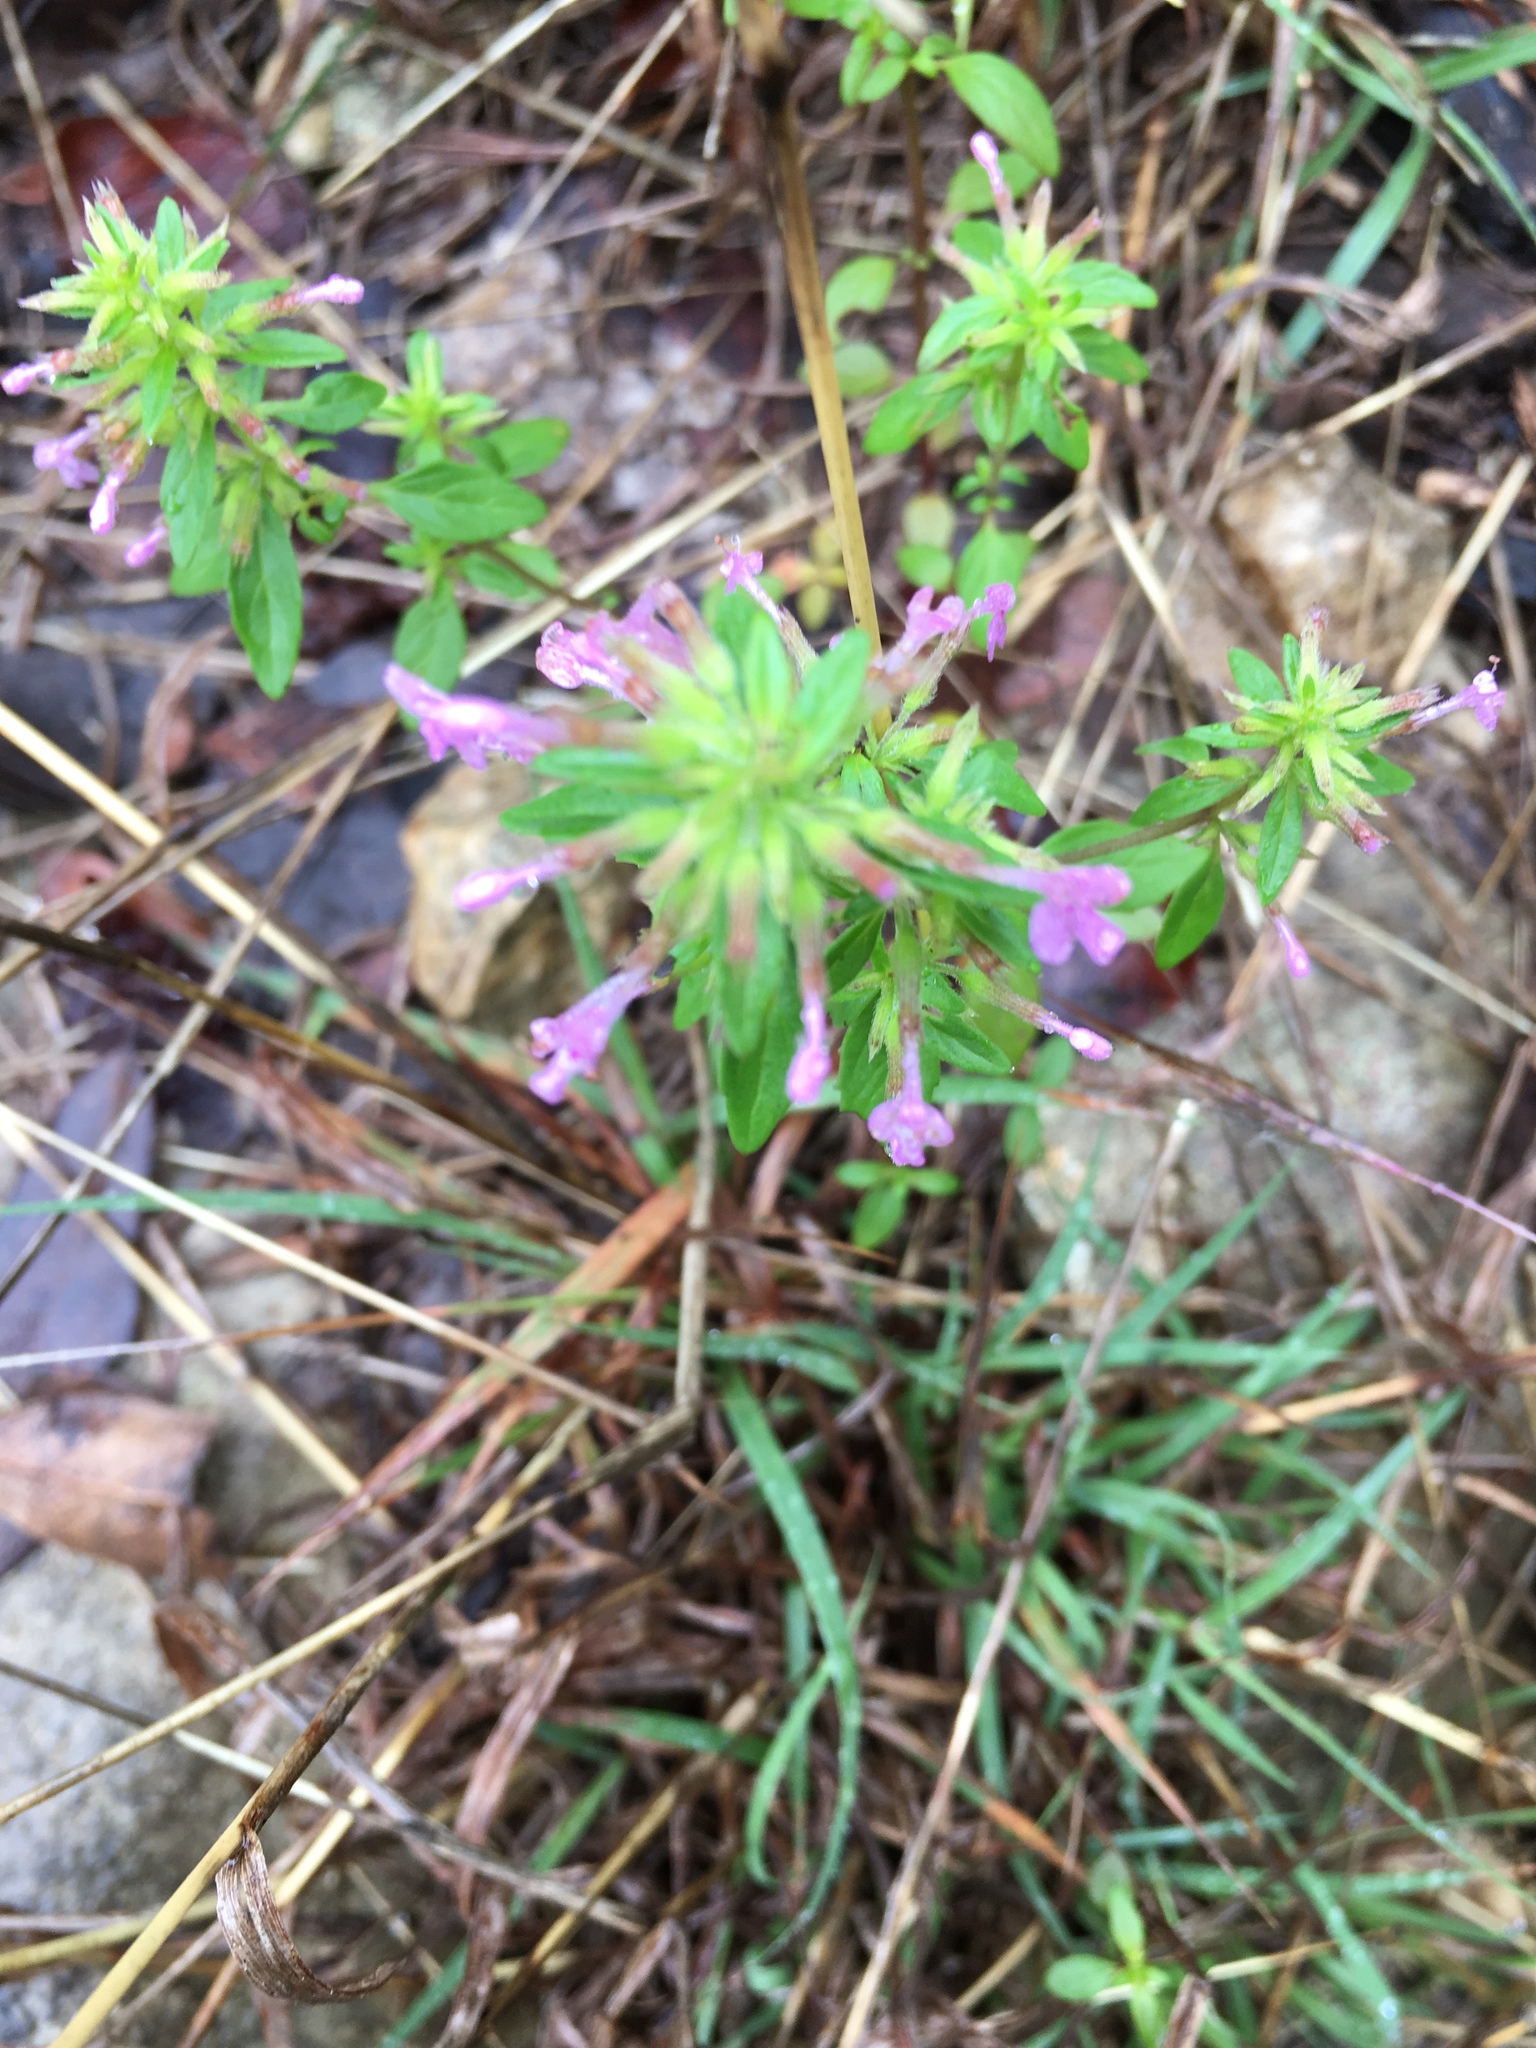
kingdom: Plantae
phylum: Tracheophyta
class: Magnoliopsida
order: Lamiales
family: Lamiaceae
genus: Hedeoma
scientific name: Hedeoma acinoides
